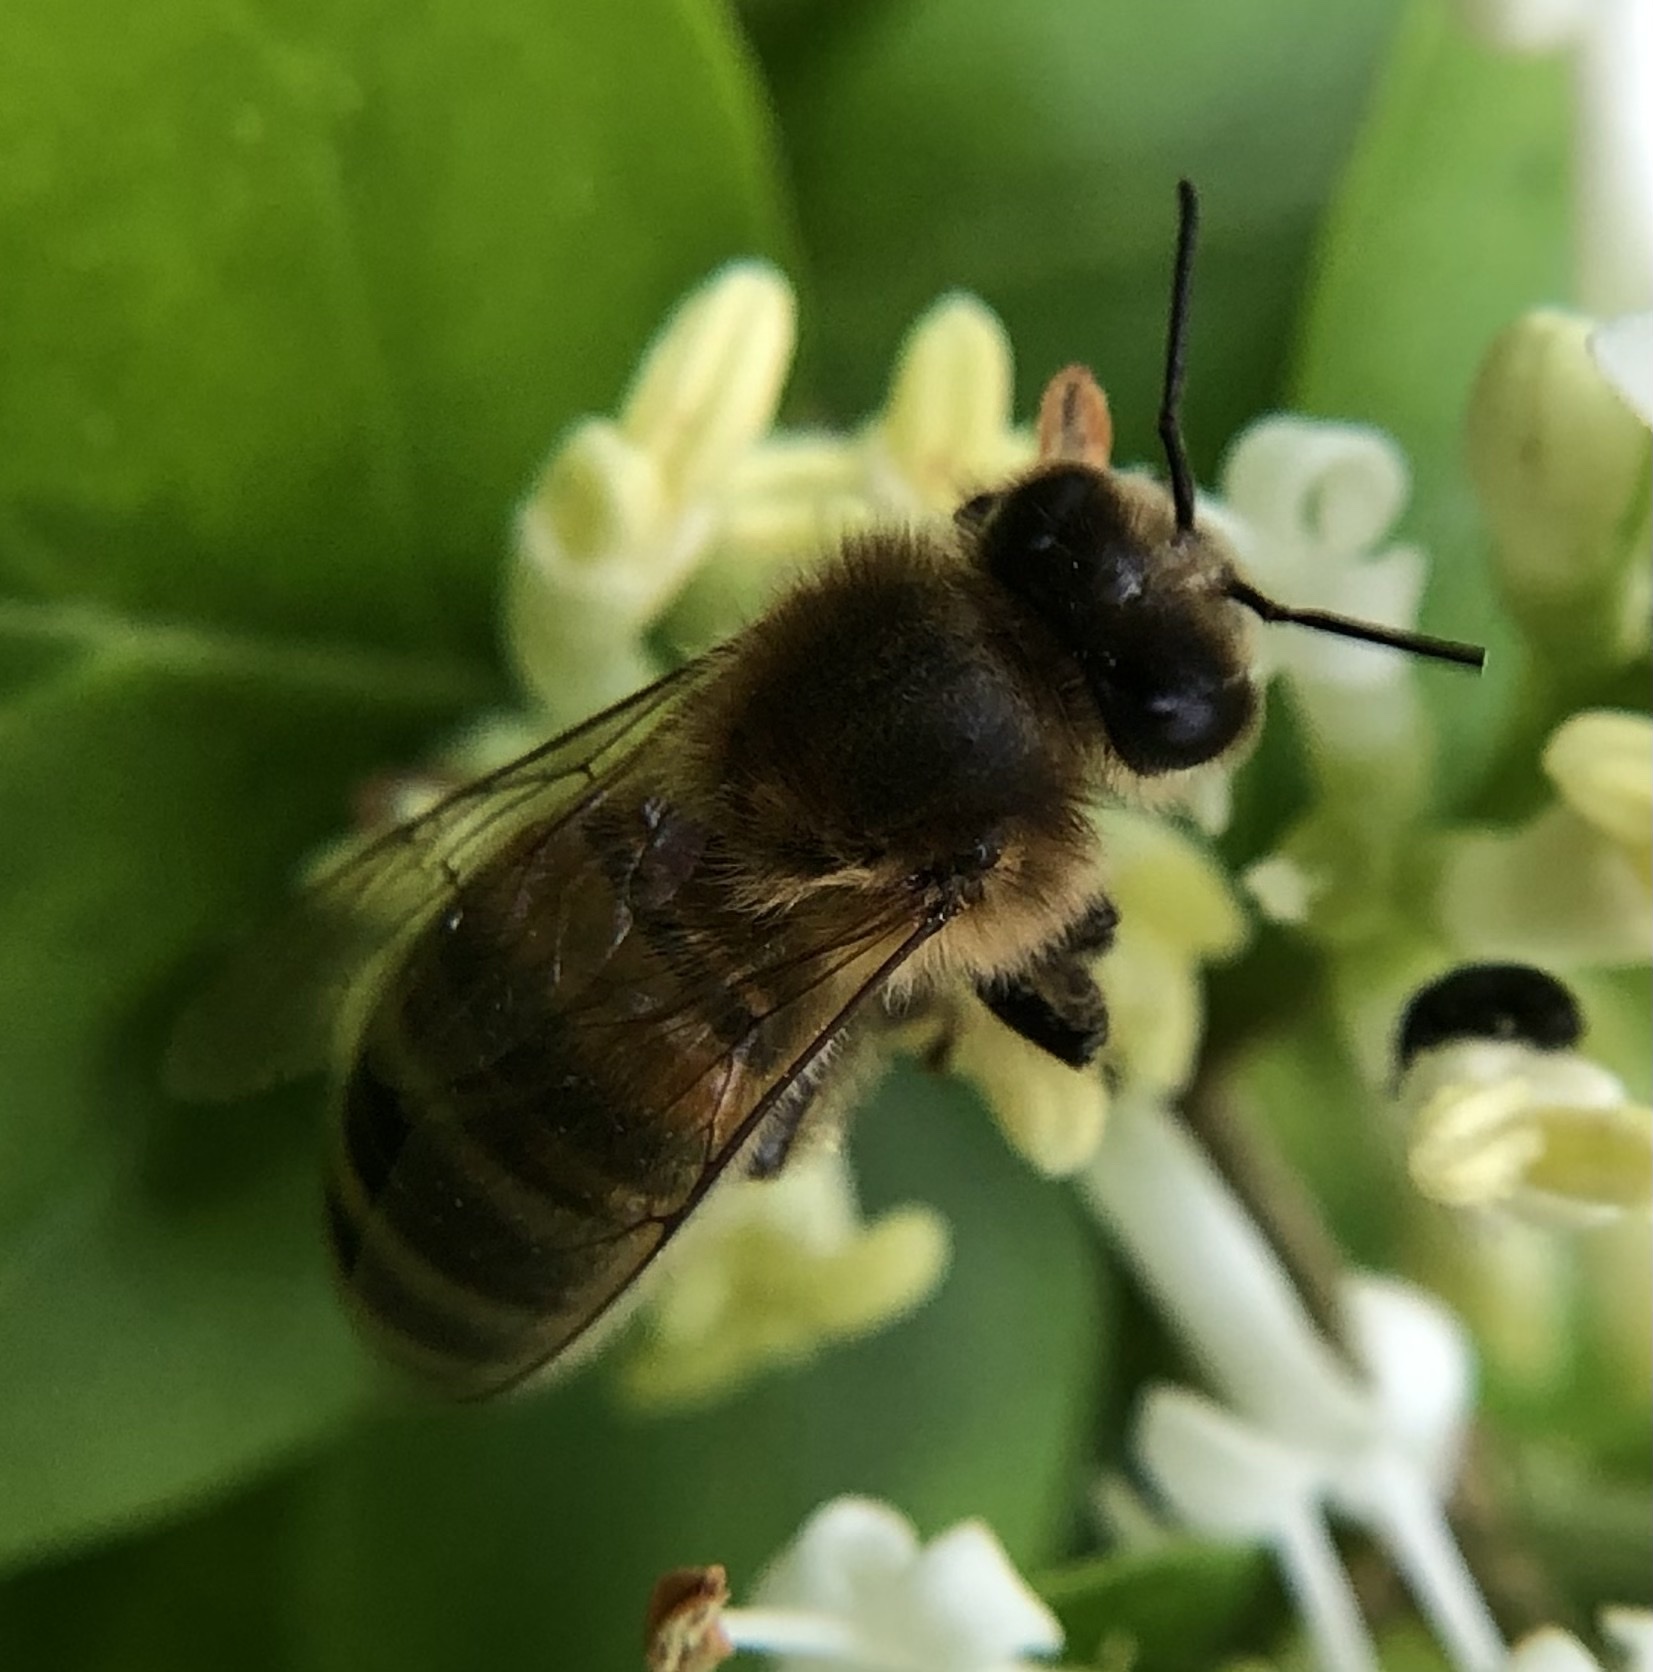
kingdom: Animalia
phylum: Arthropoda
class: Insecta
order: Hymenoptera
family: Apidae
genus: Apis
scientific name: Apis mellifera
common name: Honey bee
